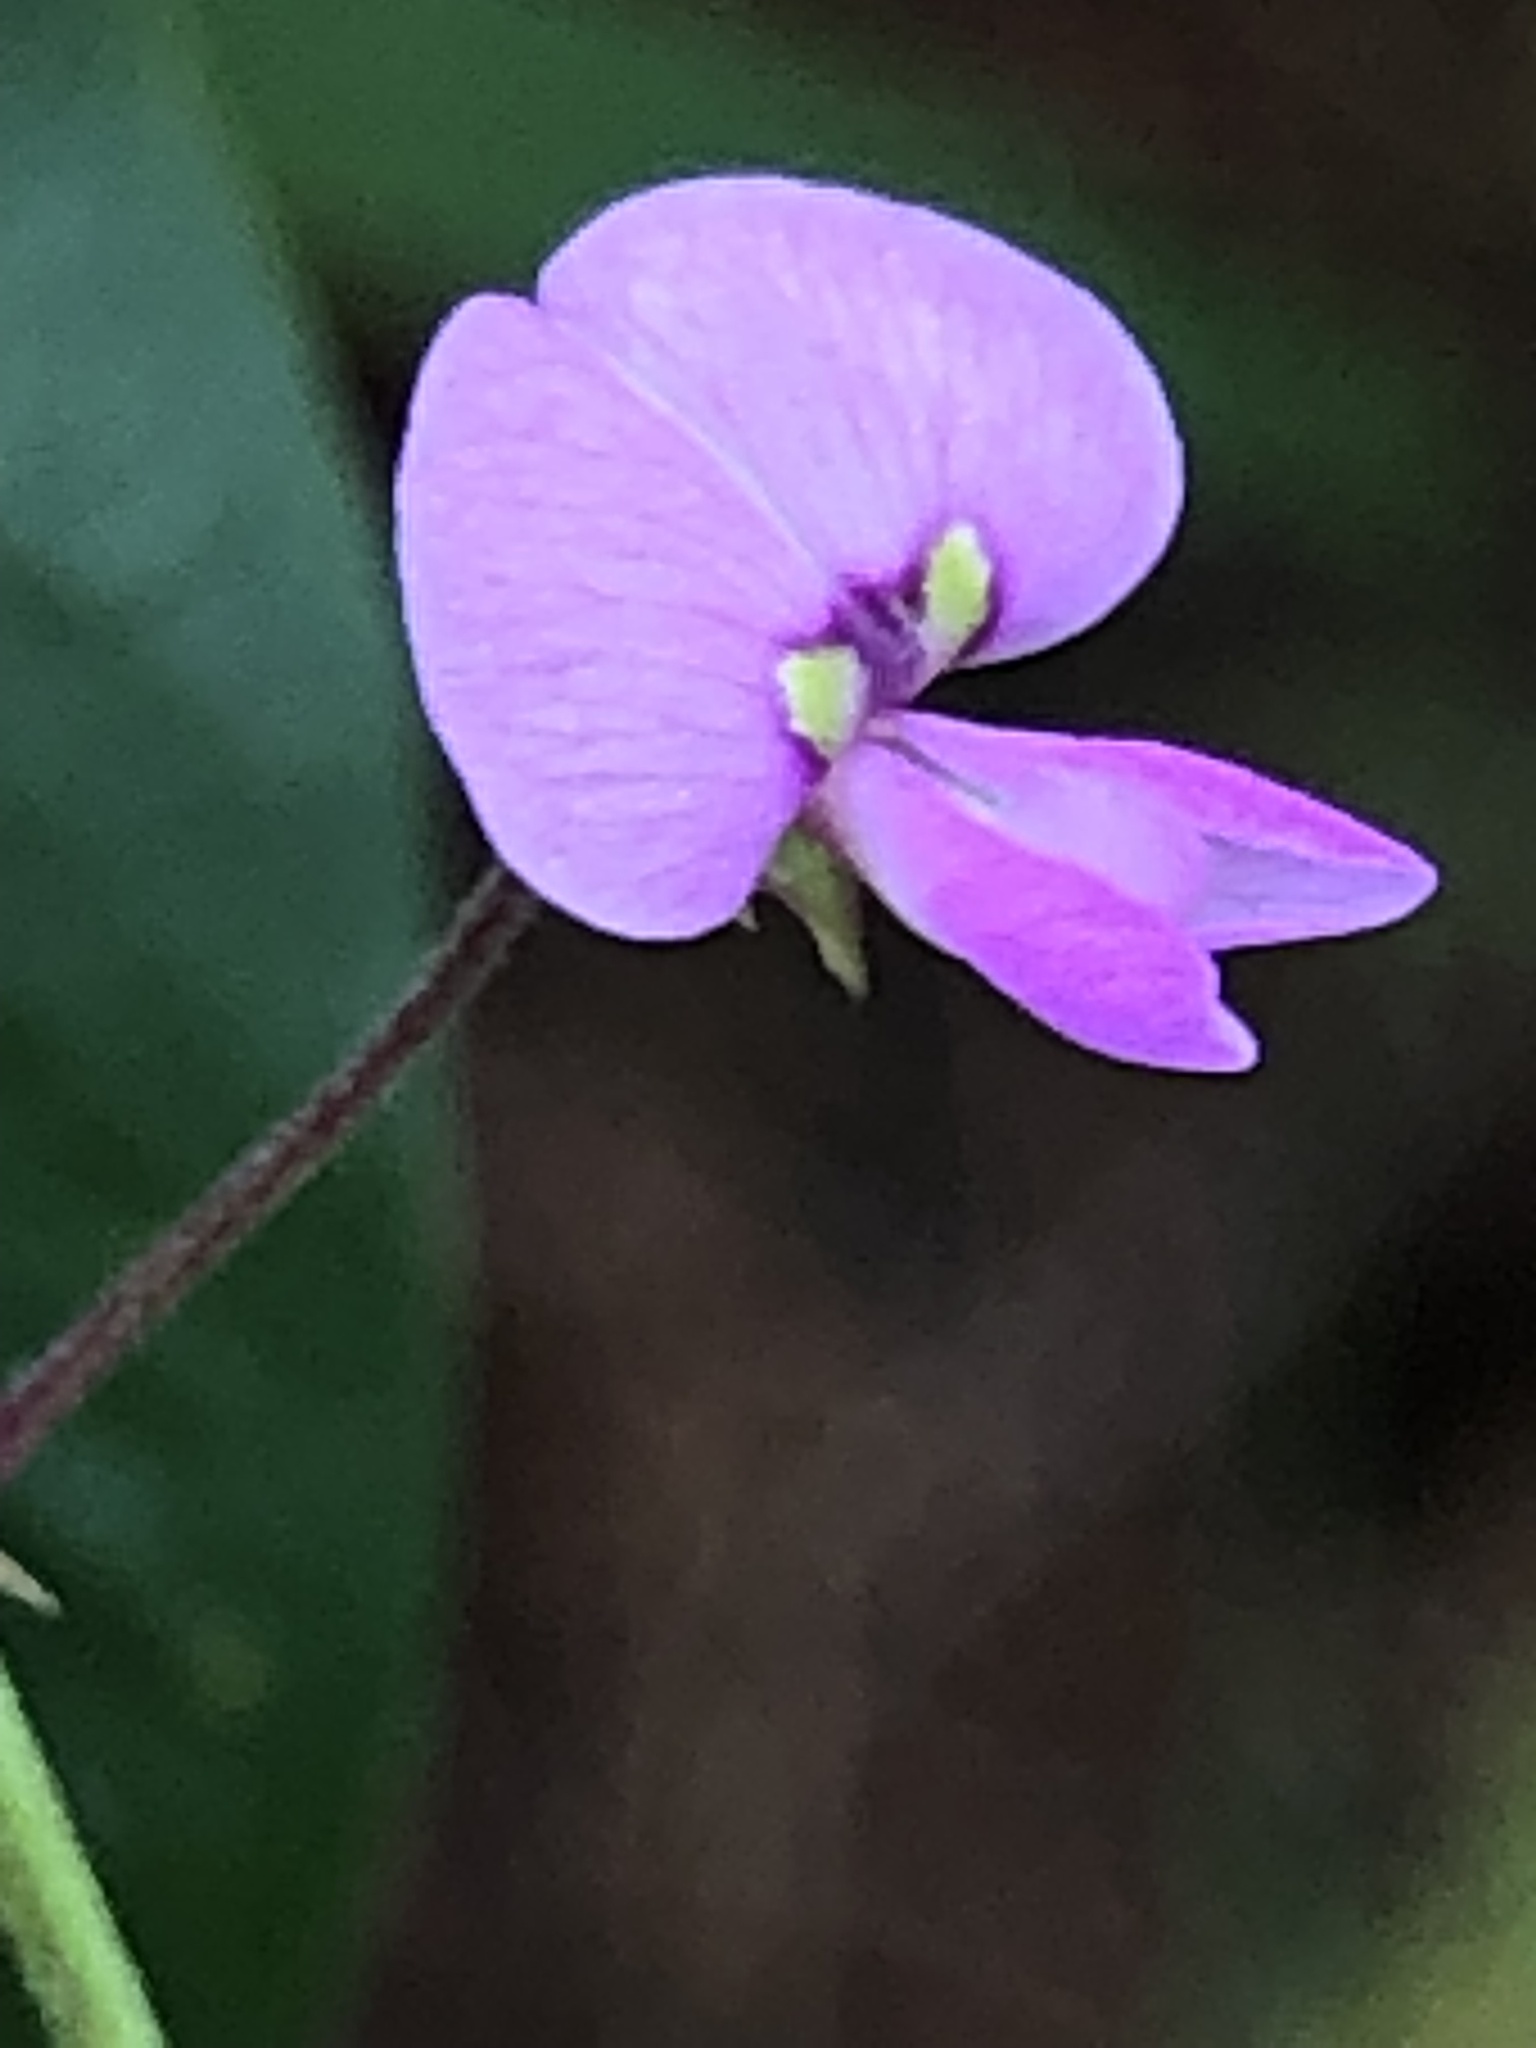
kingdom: Plantae
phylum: Tracheophyta
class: Magnoliopsida
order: Fabales
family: Fabaceae
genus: Desmodium
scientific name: Desmodium marilandicum
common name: Maryland tick-trefoil
